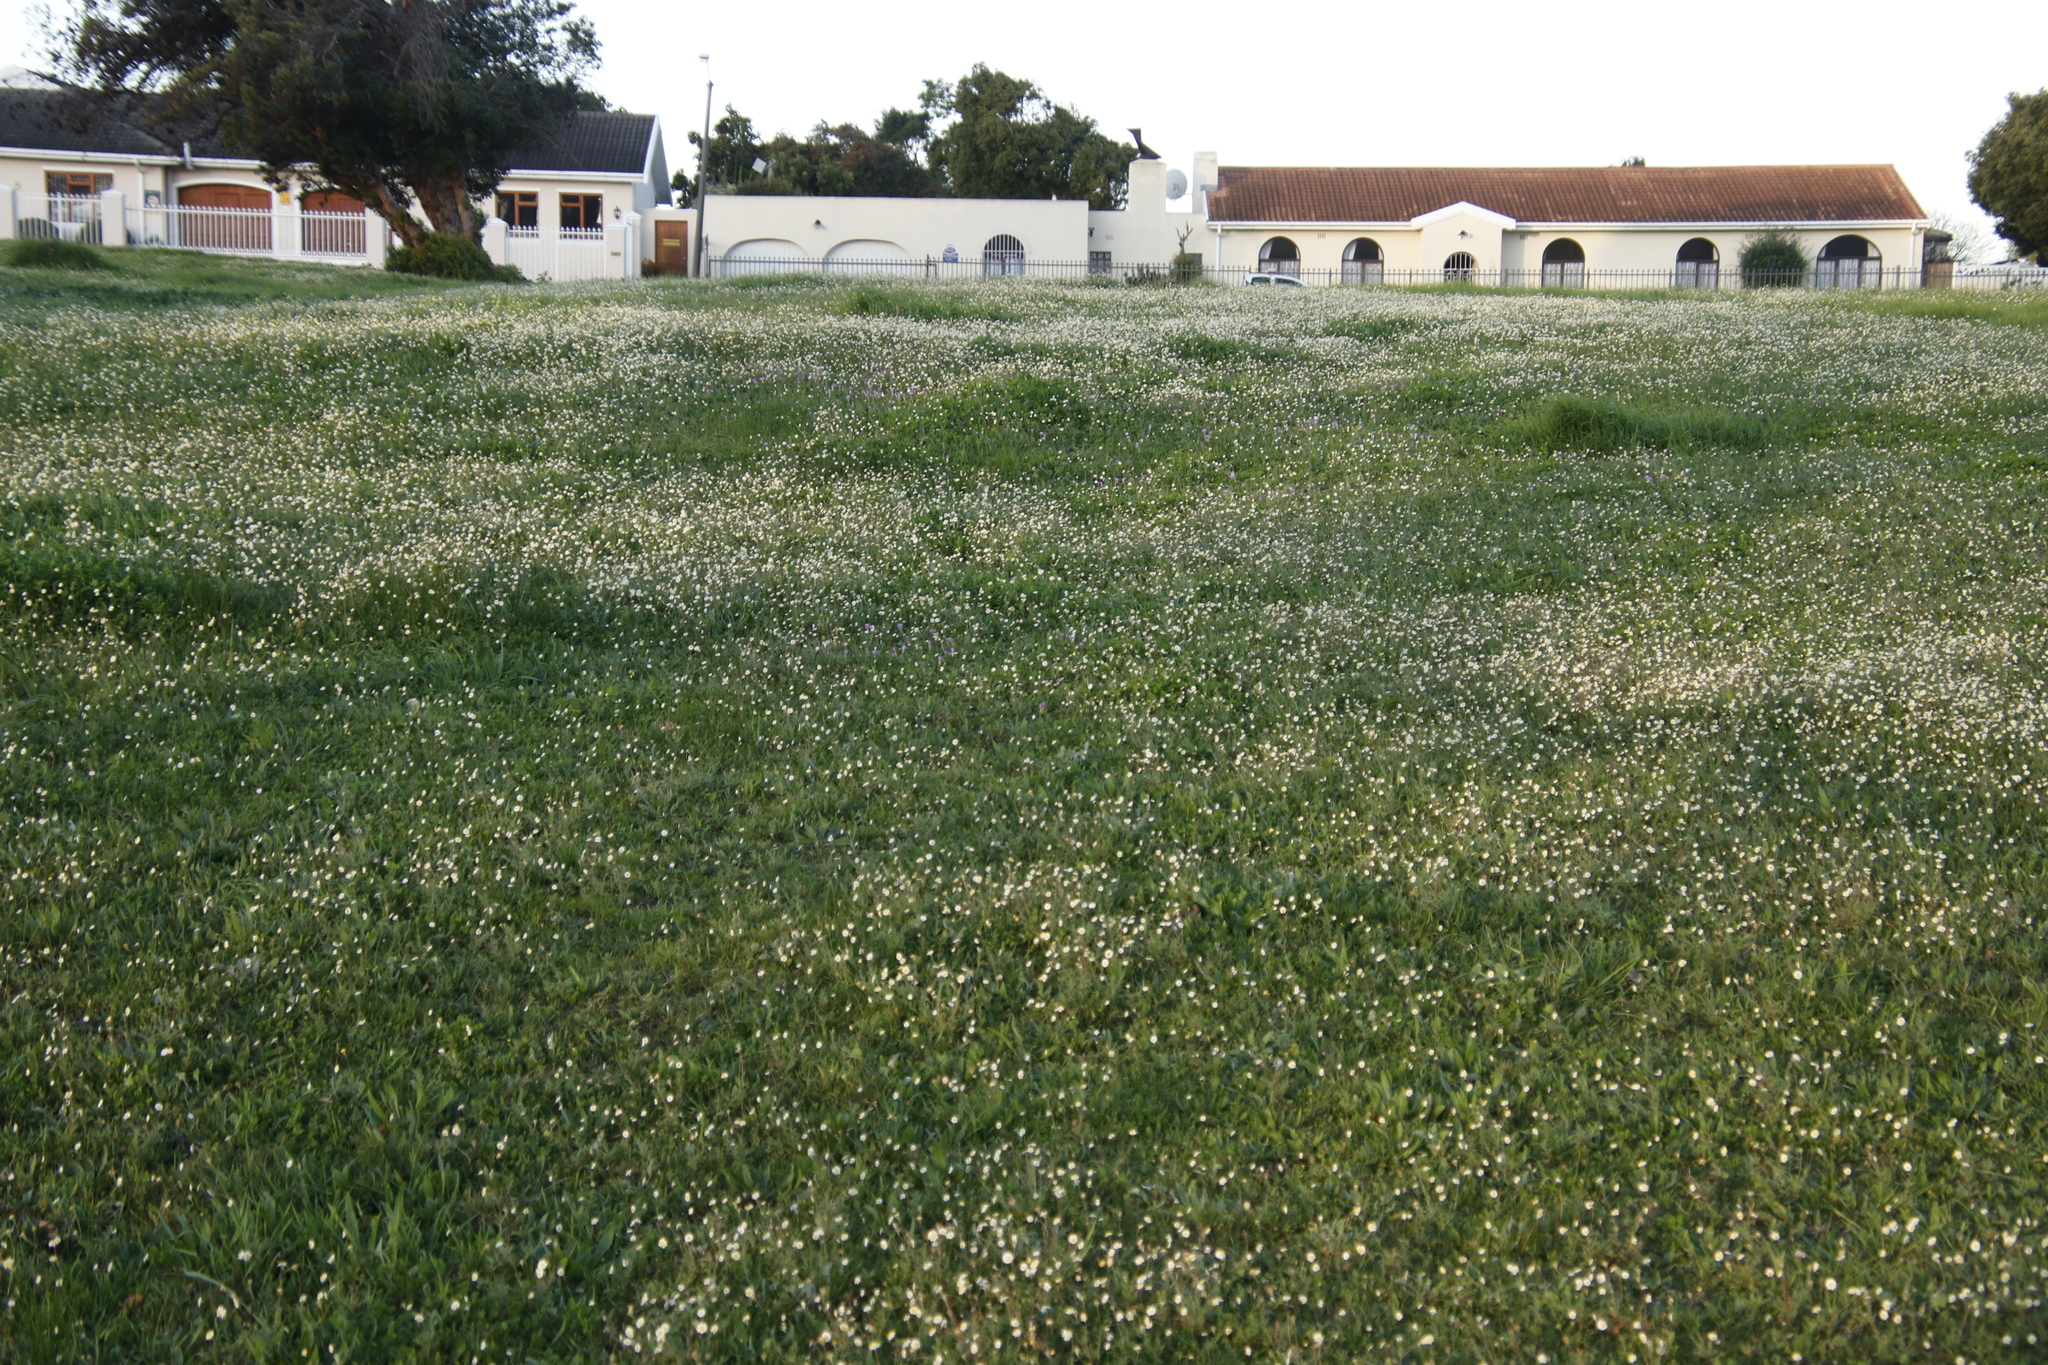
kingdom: Plantae
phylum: Tracheophyta
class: Magnoliopsida
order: Asterales
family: Asteraceae
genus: Cotula
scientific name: Cotula turbinata
